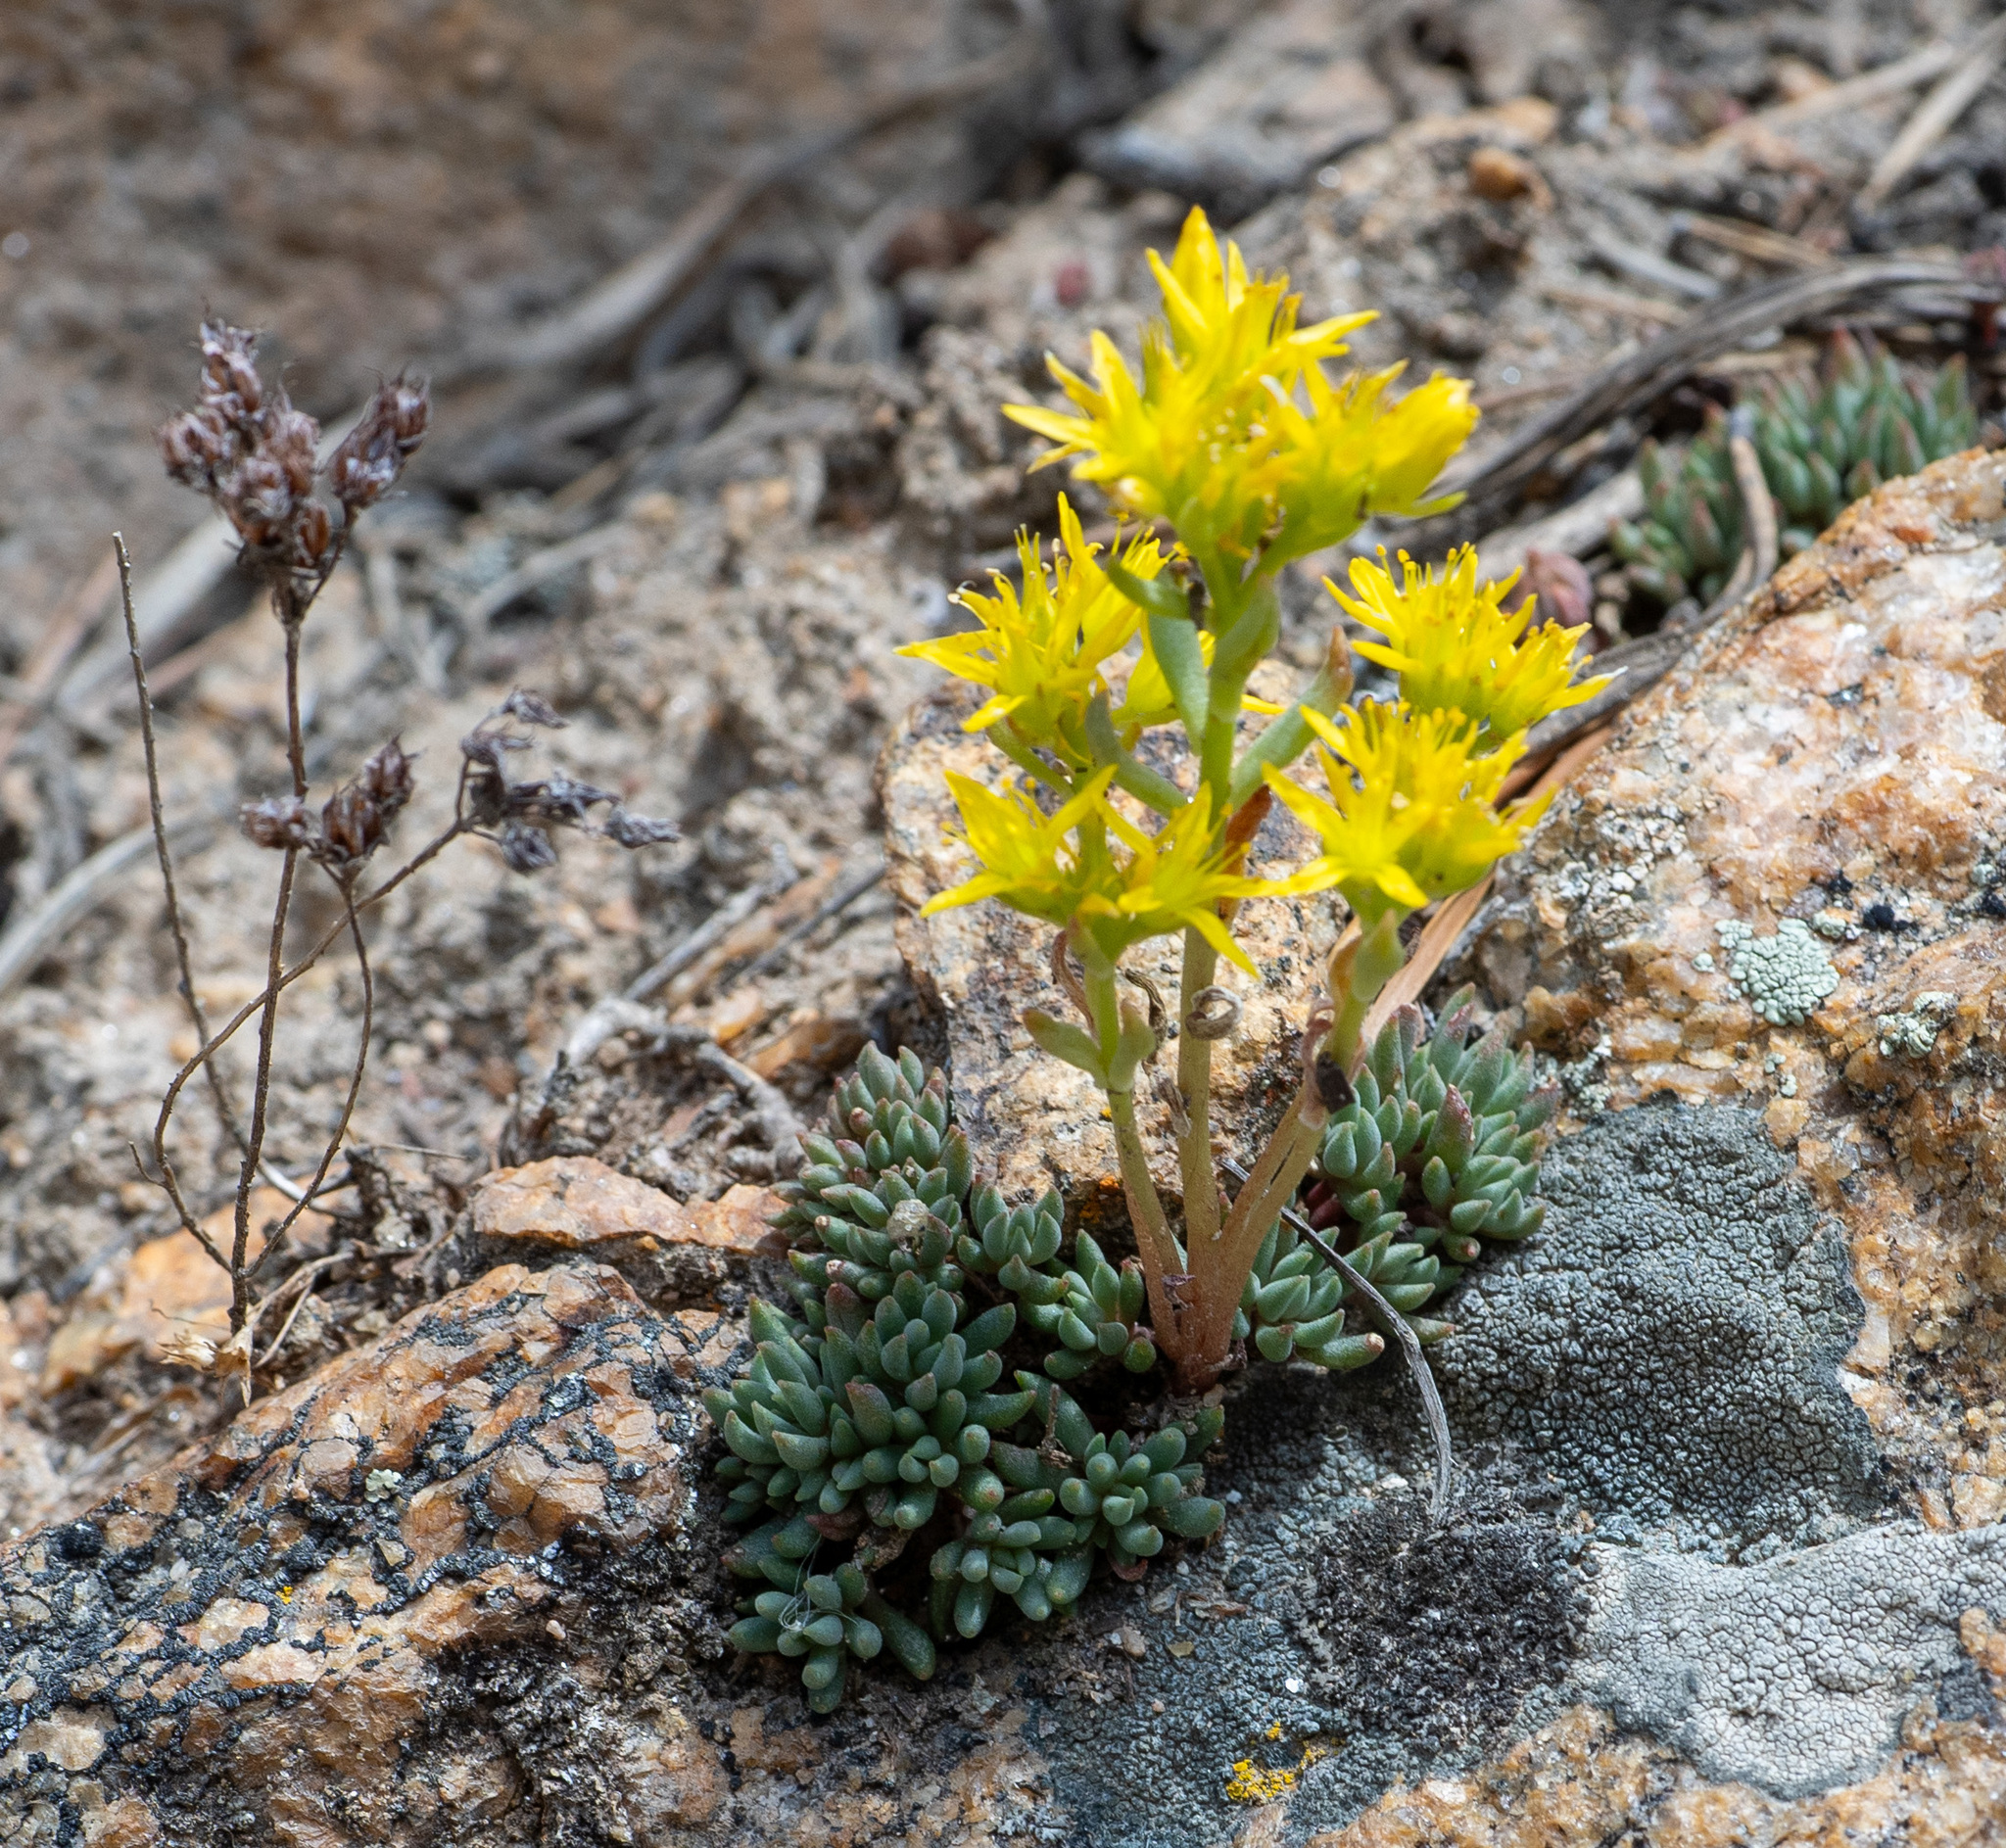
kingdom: Plantae
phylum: Tracheophyta
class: Magnoliopsida
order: Saxifragales
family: Crassulaceae
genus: Sedum
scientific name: Sedum lanceolatum
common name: Common stonecrop
